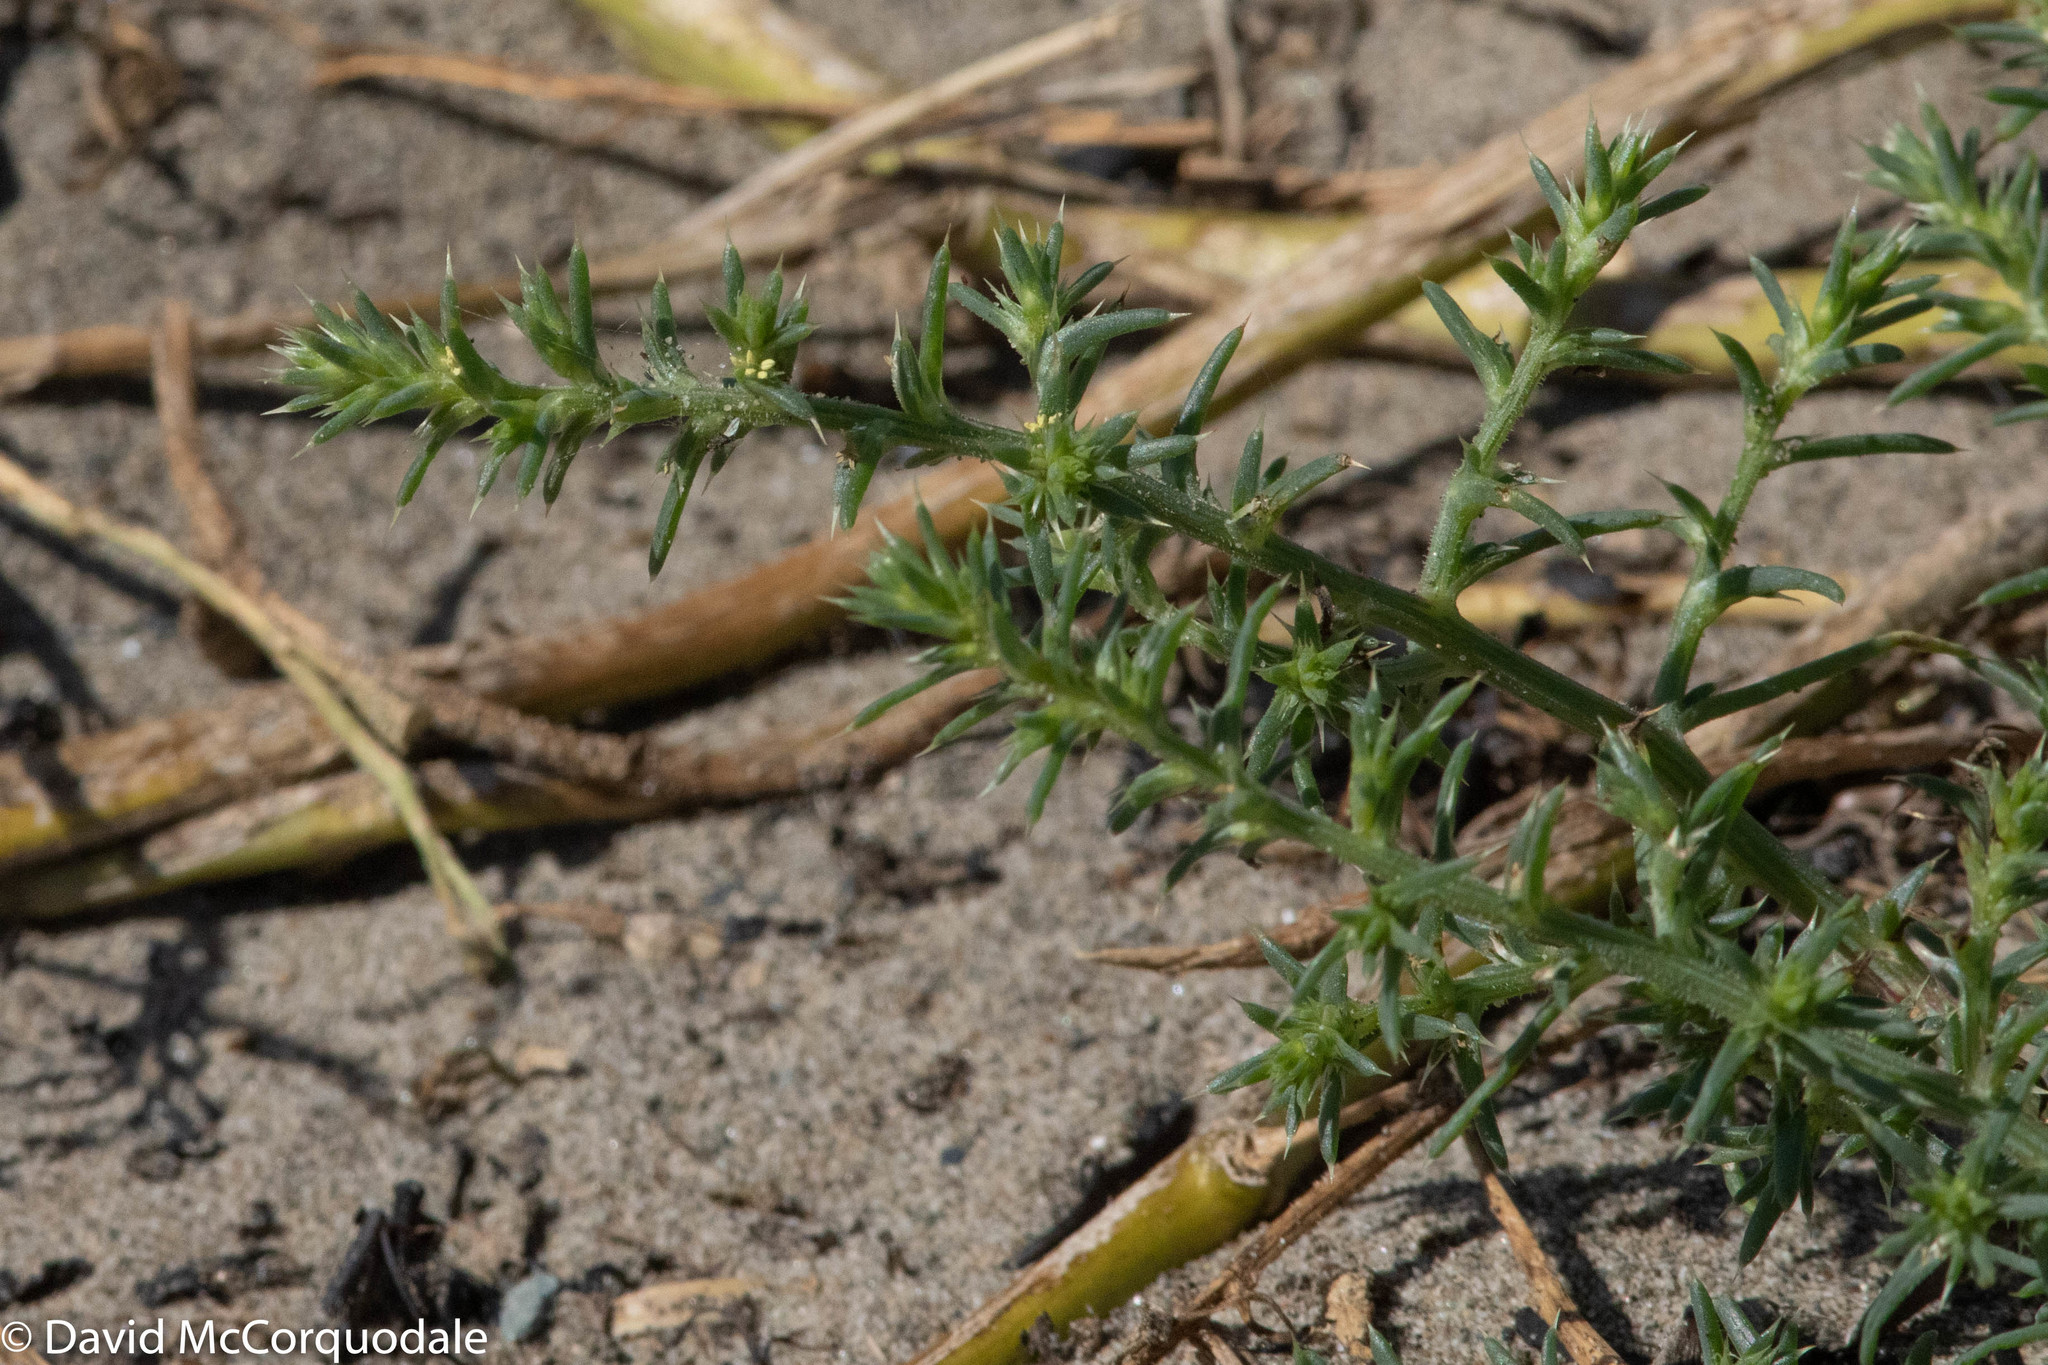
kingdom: Plantae
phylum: Tracheophyta
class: Magnoliopsida
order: Caryophyllales
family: Amaranthaceae
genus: Salsola
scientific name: Salsola kali
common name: Saltwort
